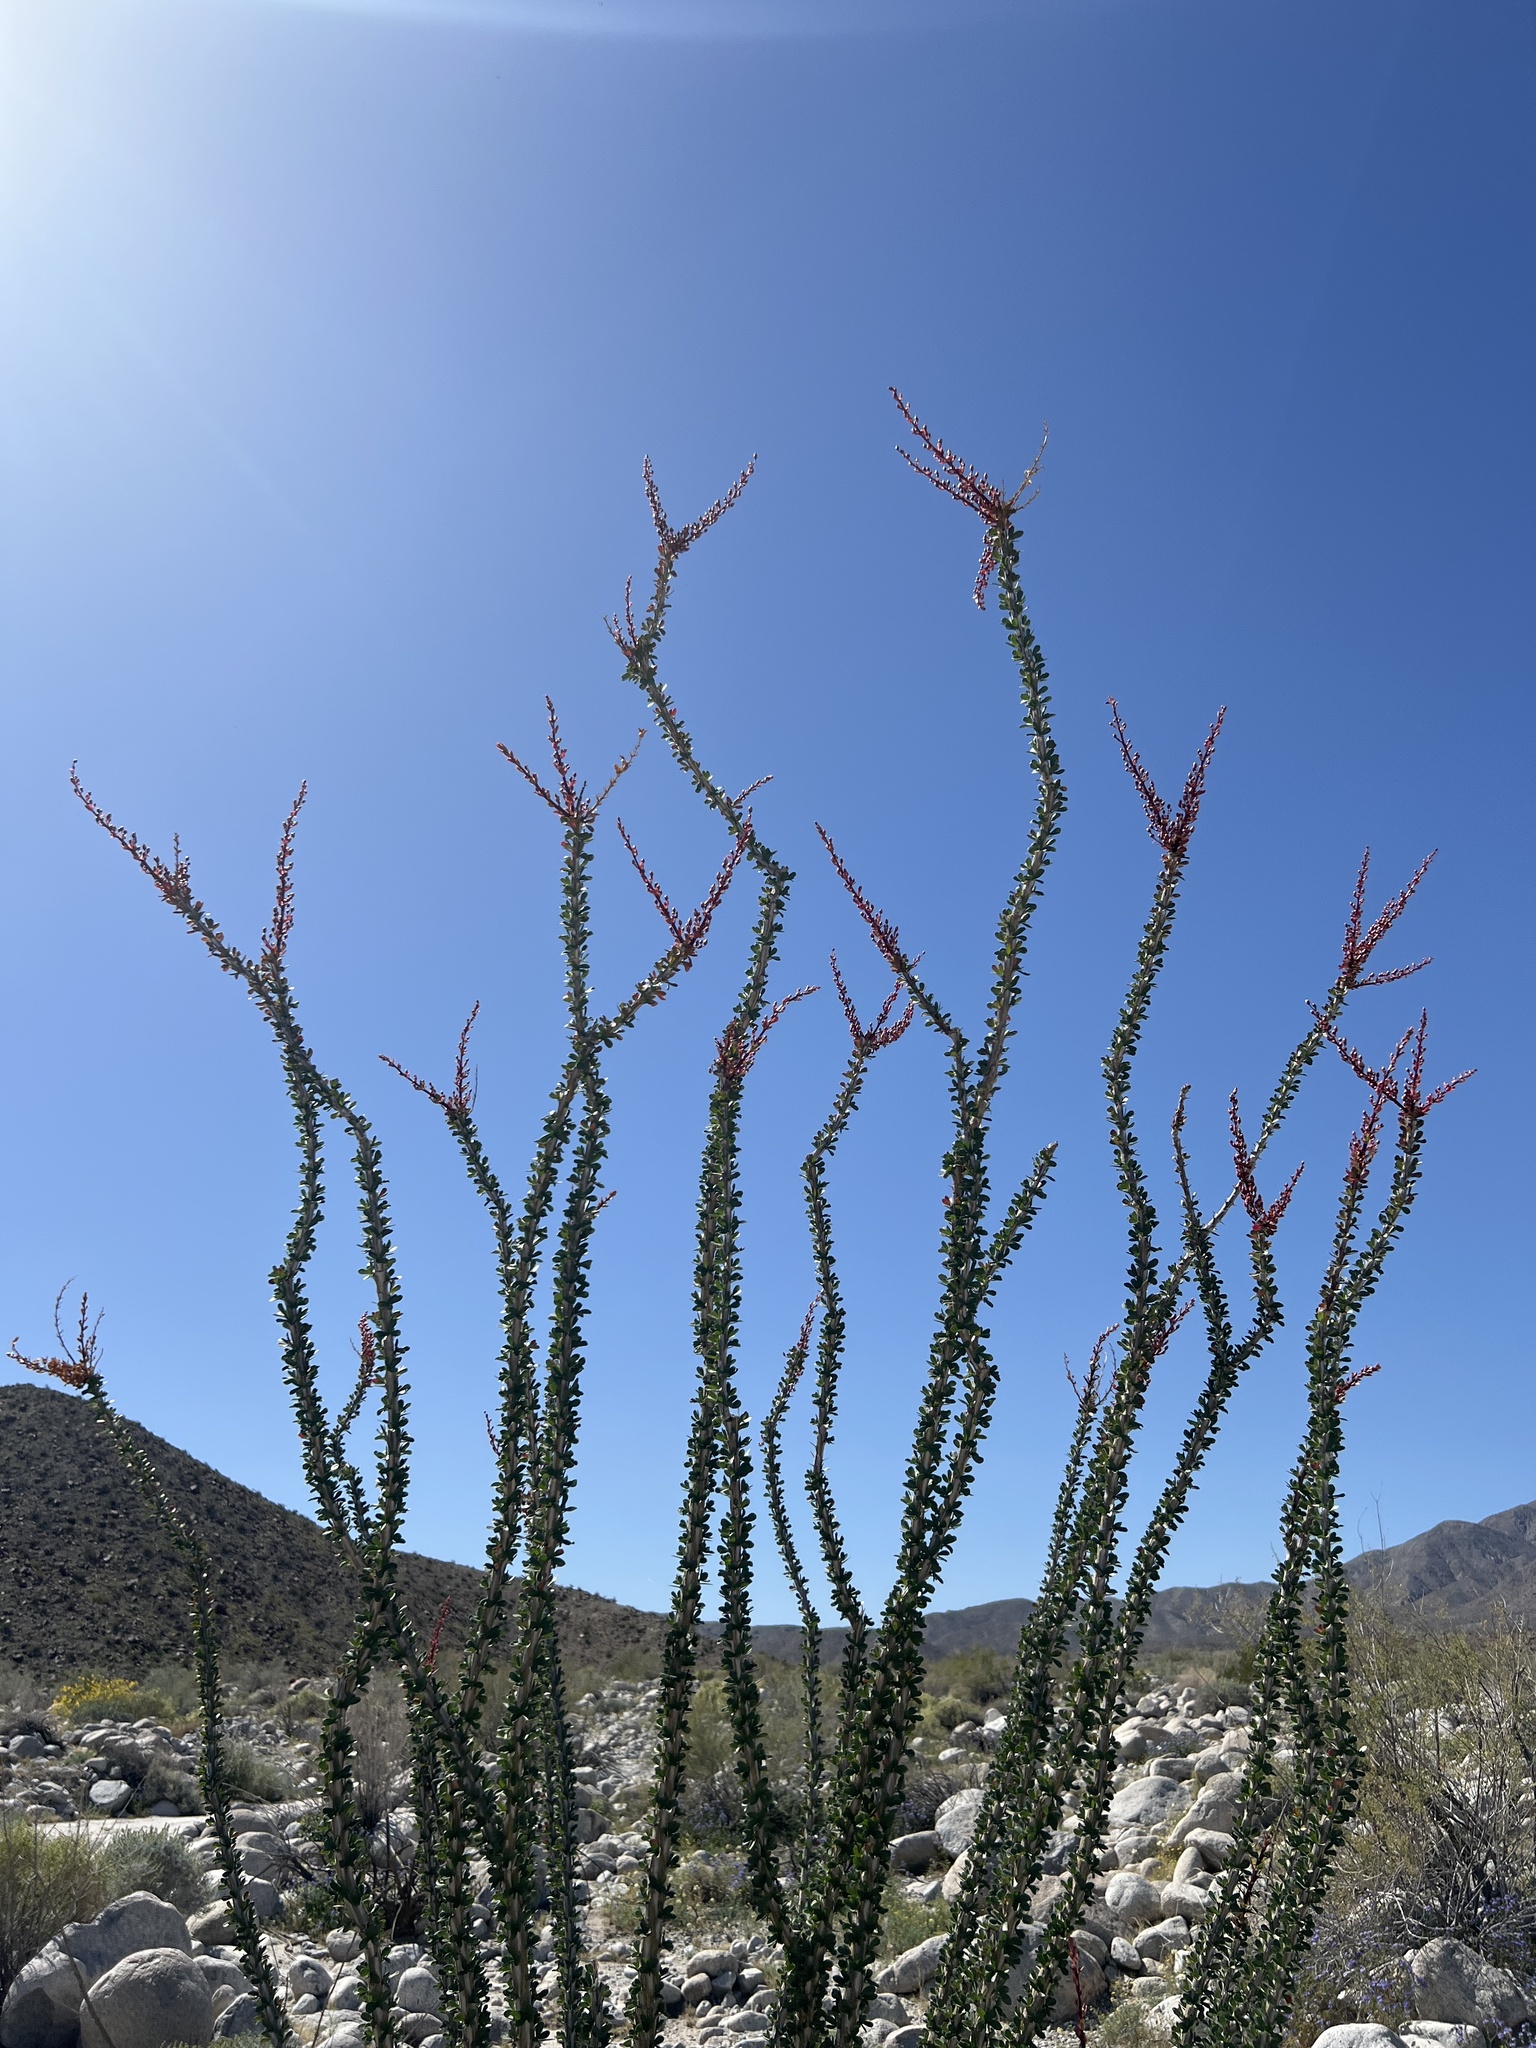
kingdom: Plantae
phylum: Tracheophyta
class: Magnoliopsida
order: Ericales
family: Fouquieriaceae
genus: Fouquieria
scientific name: Fouquieria splendens
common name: Vine-cactus
